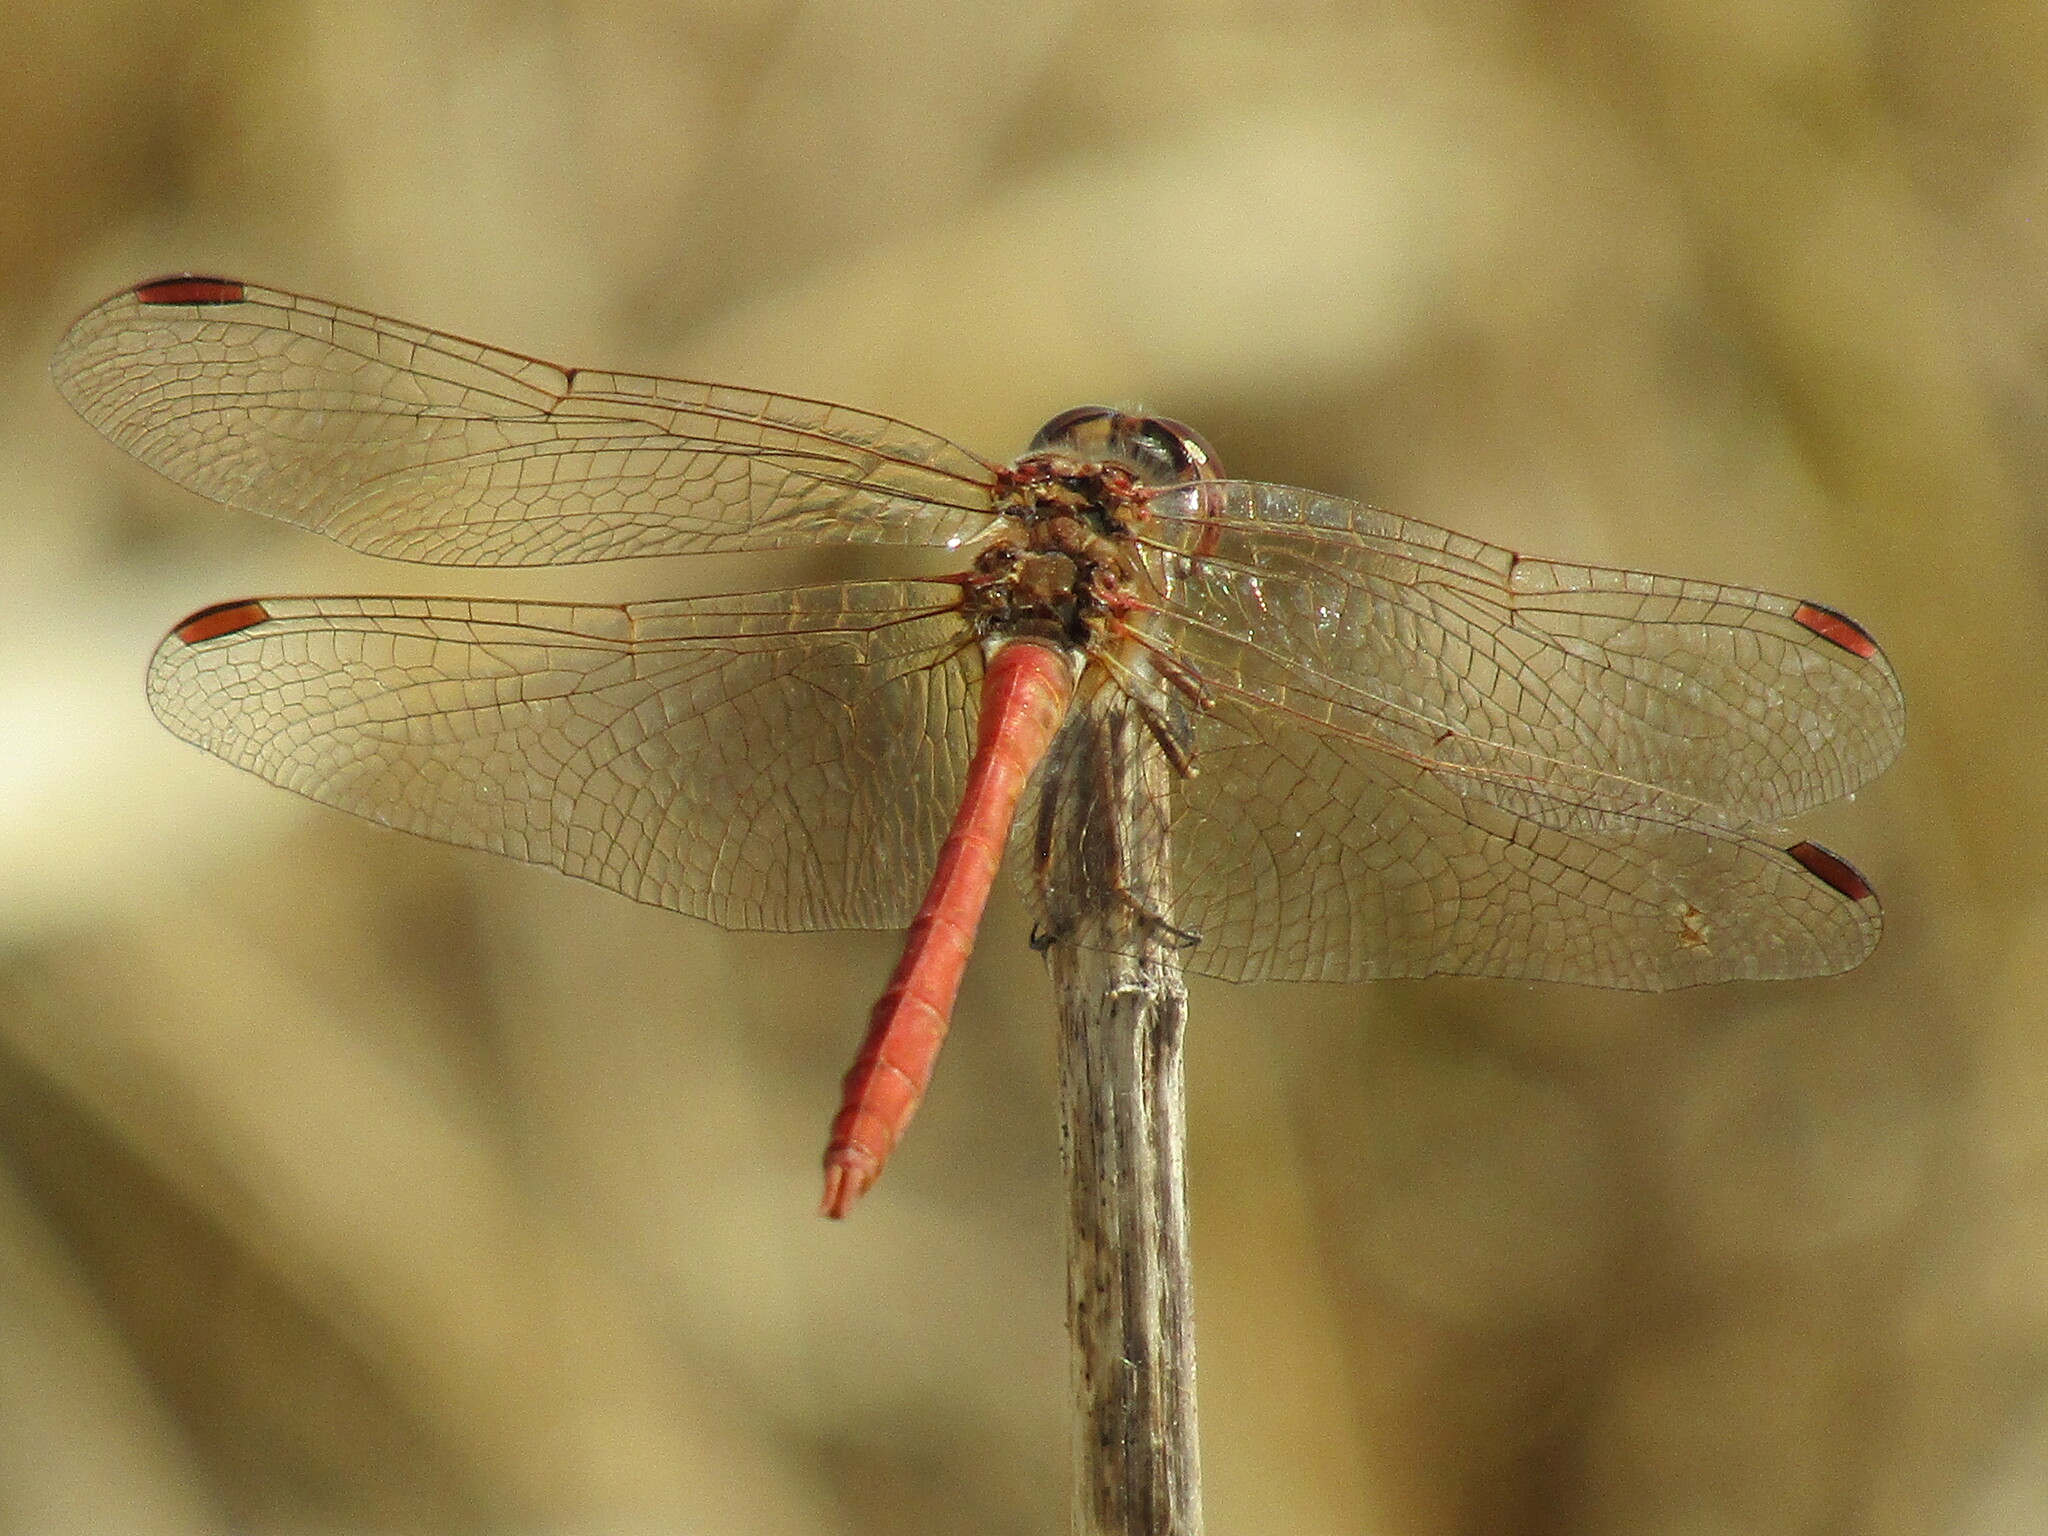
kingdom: Animalia
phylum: Arthropoda
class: Insecta
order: Odonata
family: Libellulidae
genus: Sympetrum
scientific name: Sympetrum meridionale
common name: Southern darter
